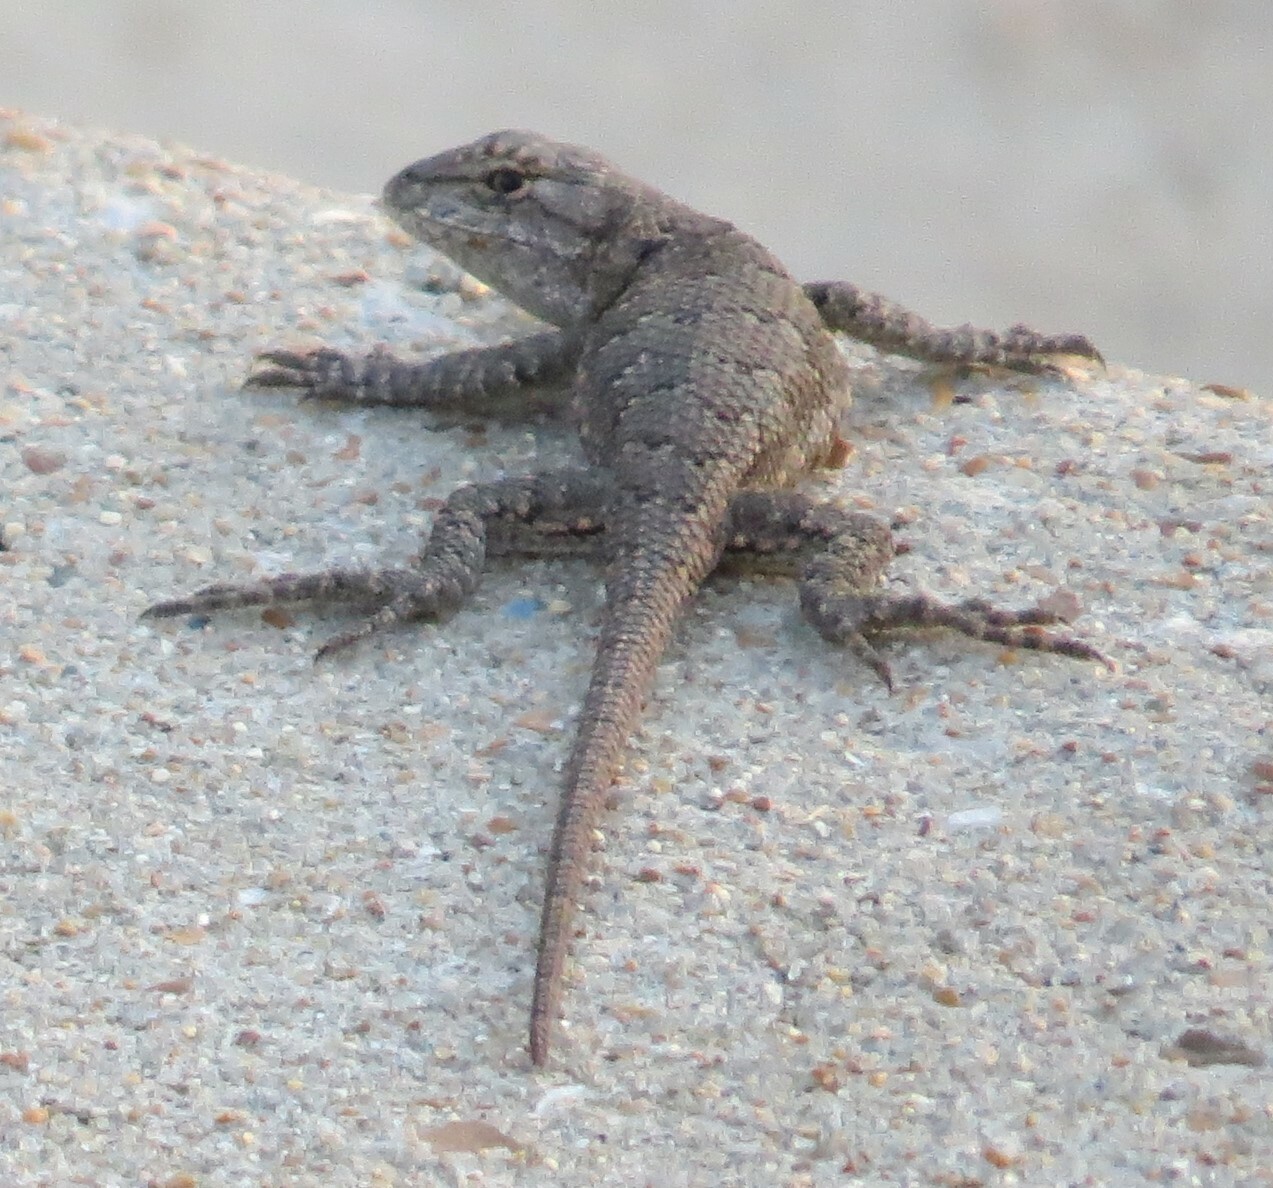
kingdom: Animalia
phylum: Chordata
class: Squamata
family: Phrynosomatidae
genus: Sceloporus
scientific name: Sceloporus consobrinus
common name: Southern prairie lizard
